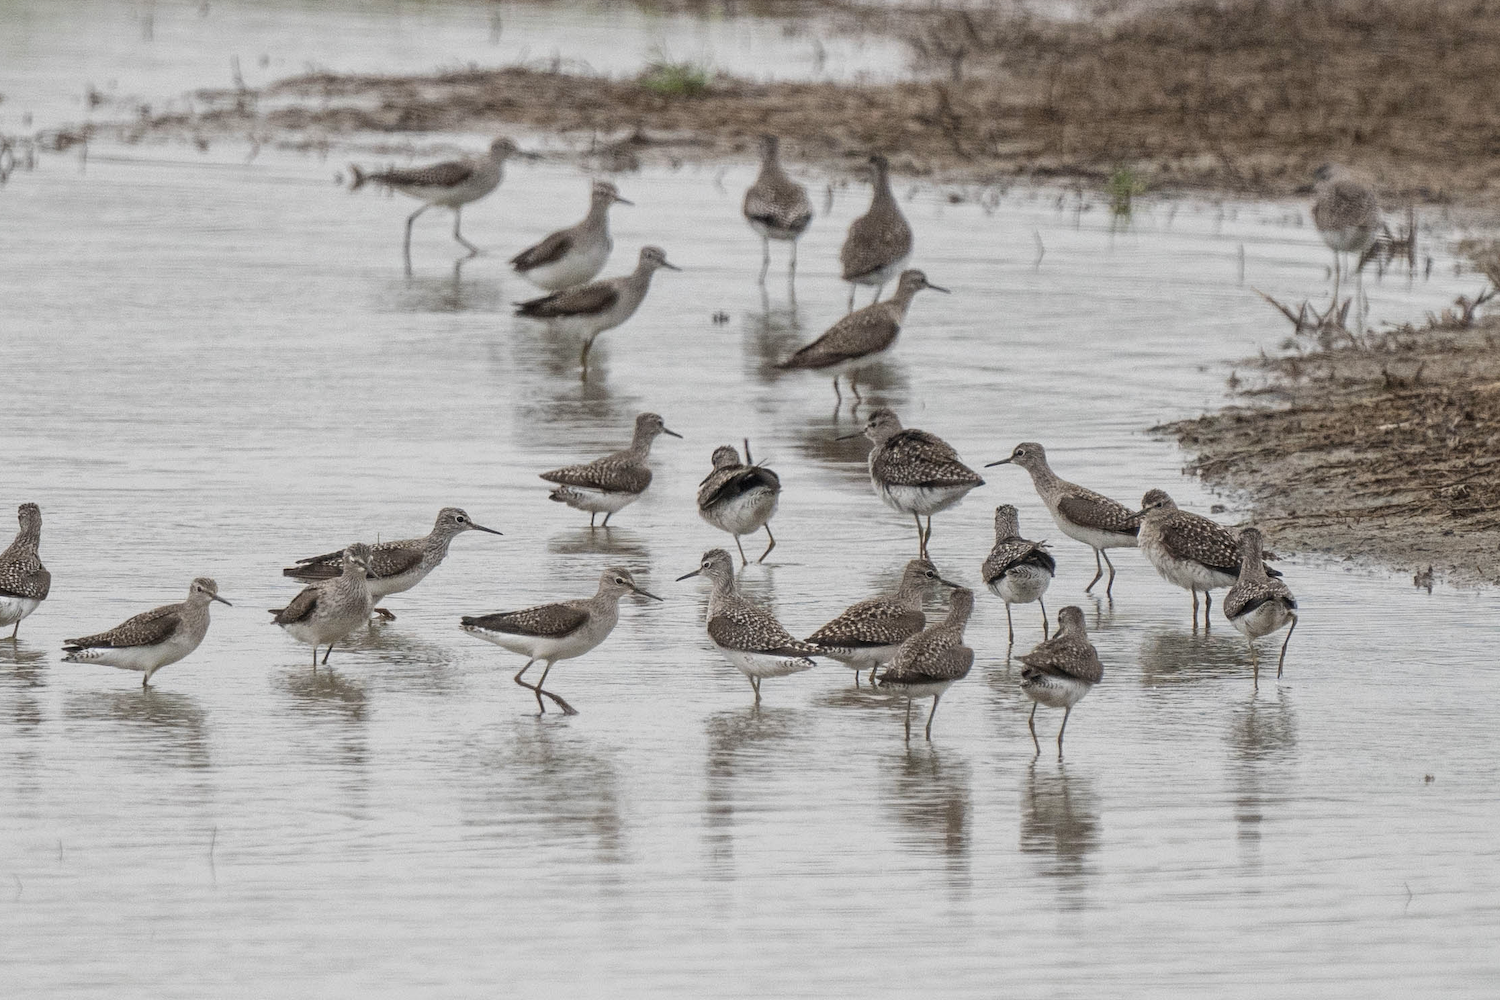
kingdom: Animalia
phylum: Chordata
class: Aves
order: Charadriiformes
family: Scolopacidae
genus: Tringa
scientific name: Tringa glareola
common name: Wood sandpiper
